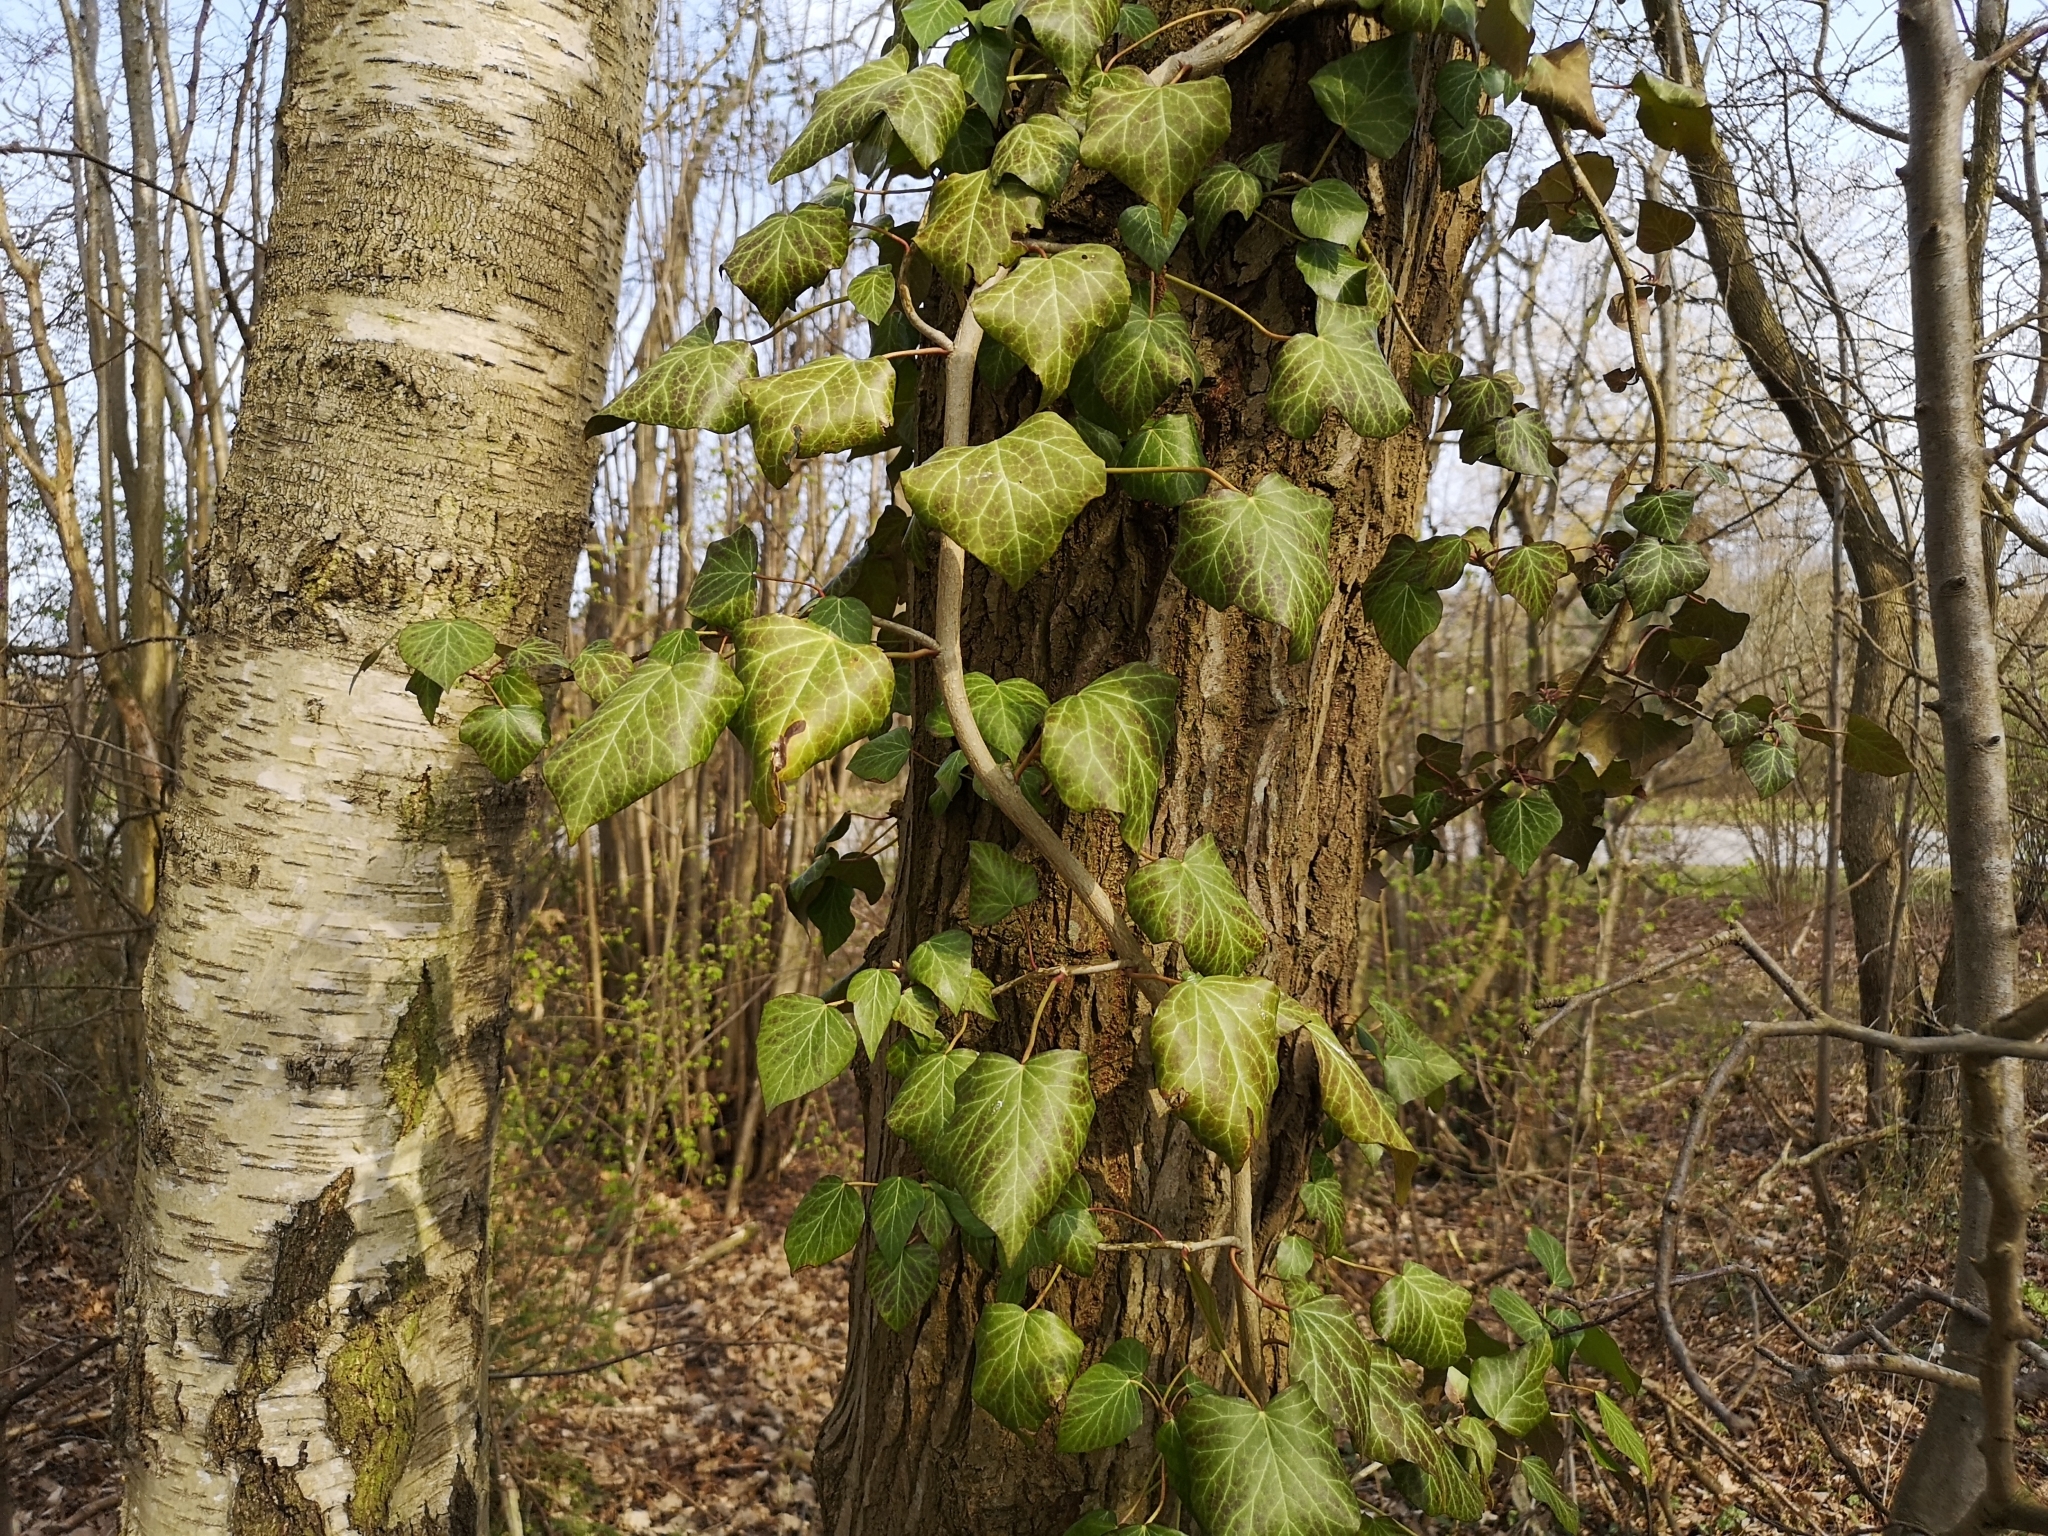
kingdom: Plantae
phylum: Tracheophyta
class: Magnoliopsida
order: Apiales
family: Araliaceae
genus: Hedera
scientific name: Hedera helix
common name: Ivy
